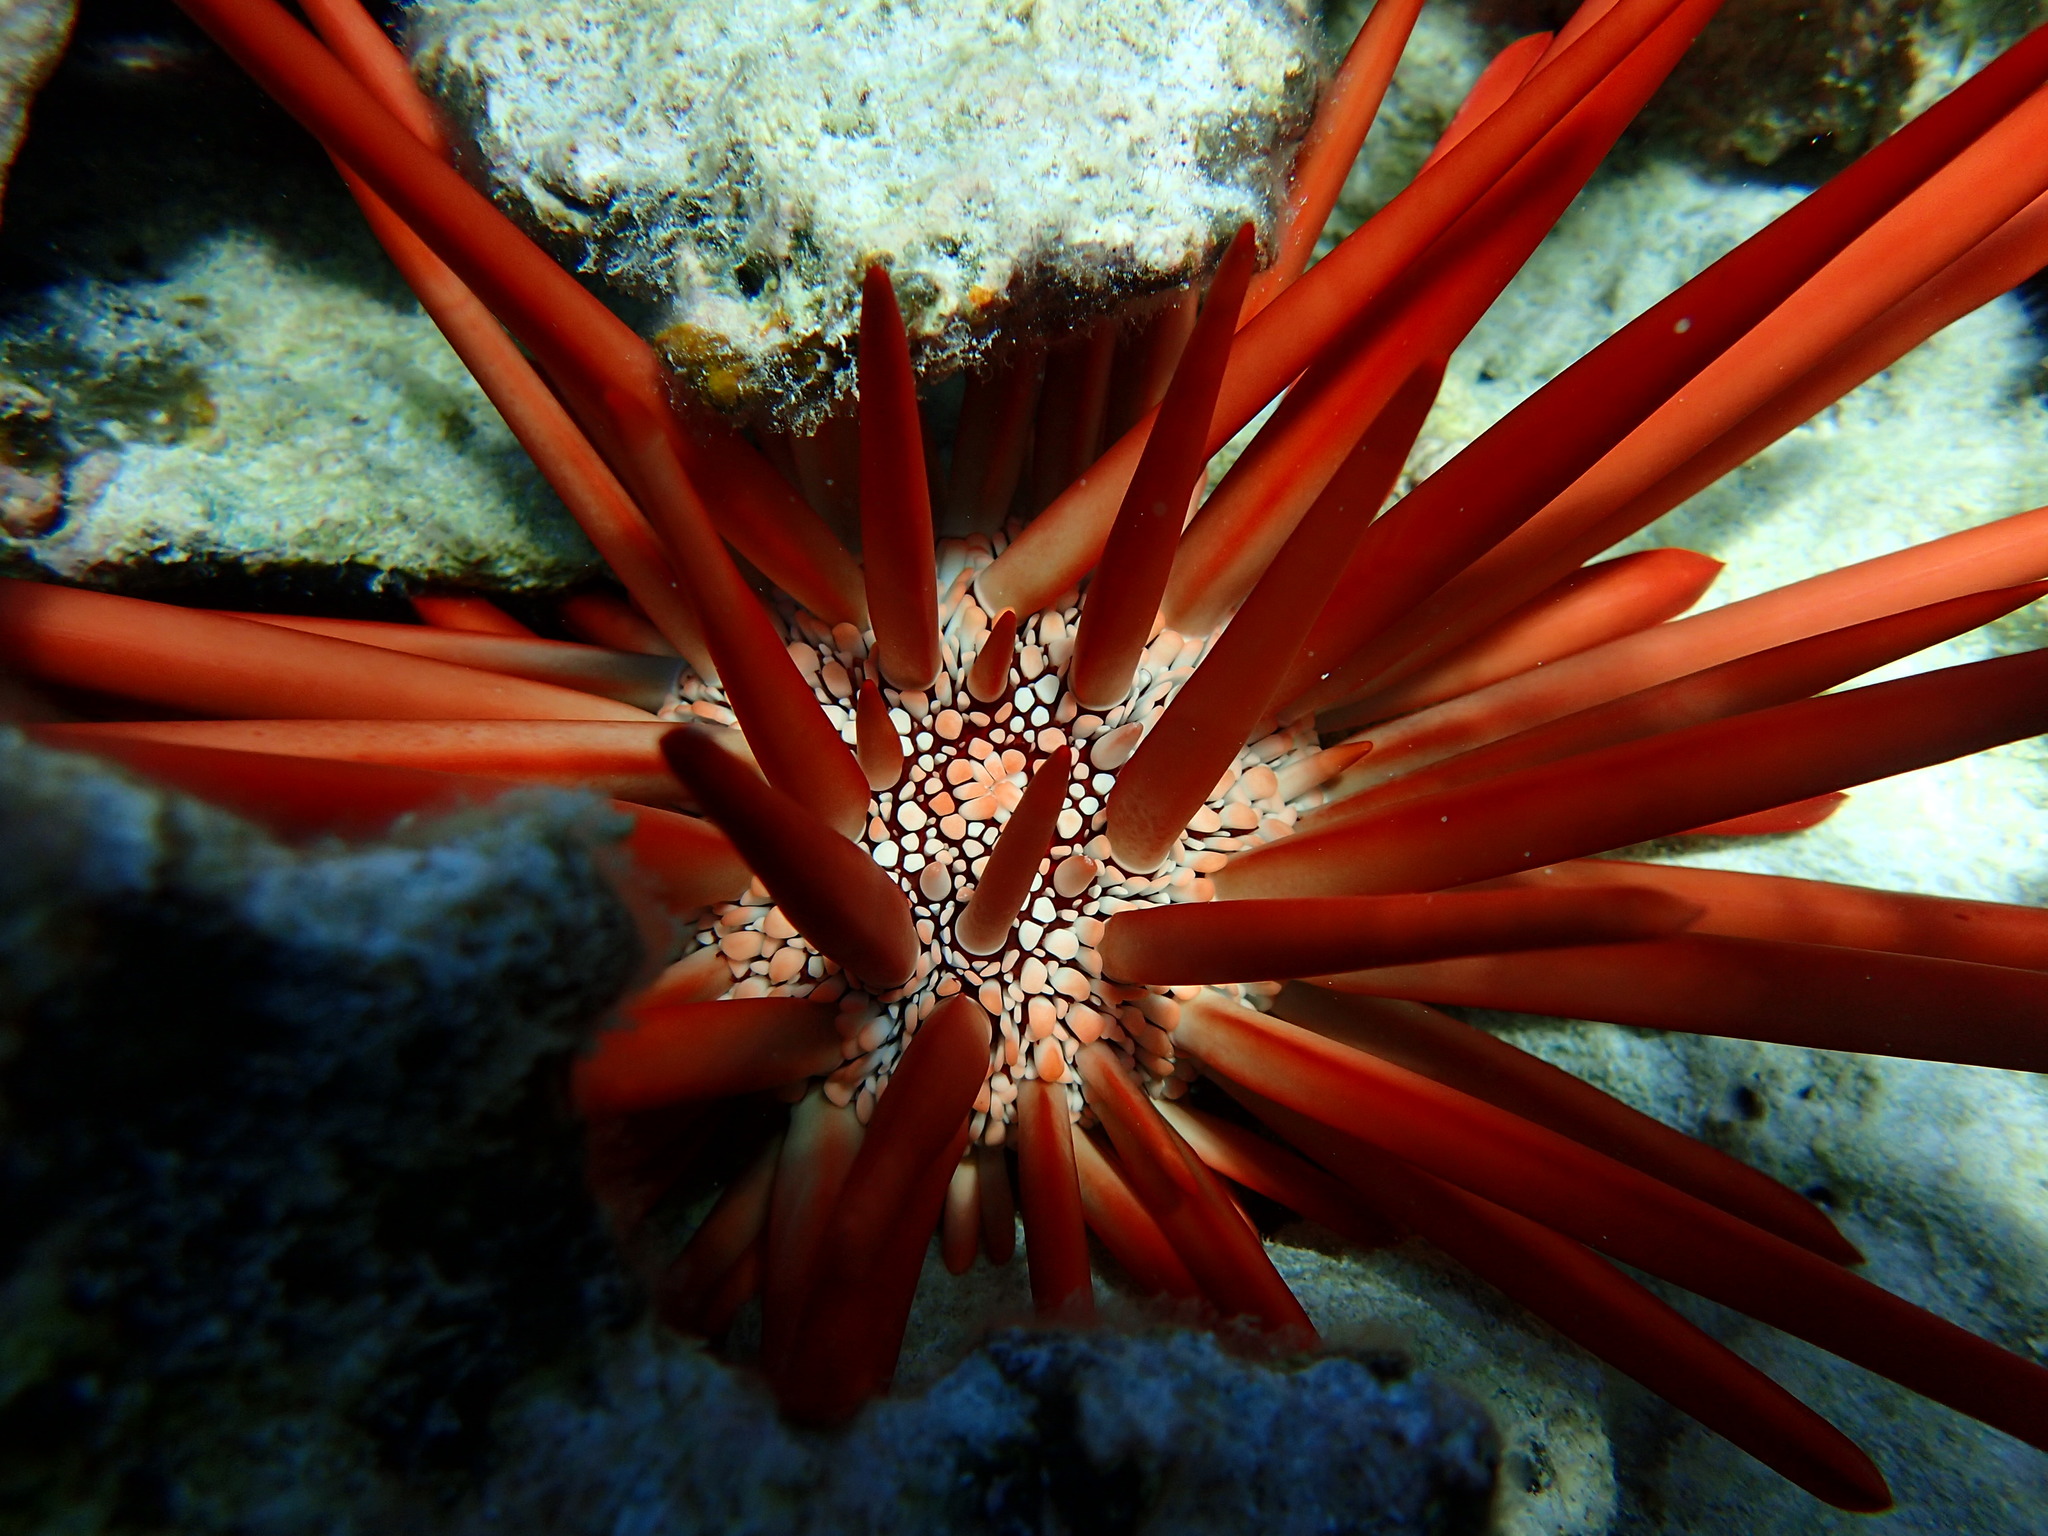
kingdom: Animalia
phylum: Echinodermata
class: Echinoidea
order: Camarodonta
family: Echinometridae
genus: Heterocentrotus
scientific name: Heterocentrotus mamillatus
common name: Slate pencil urchin
